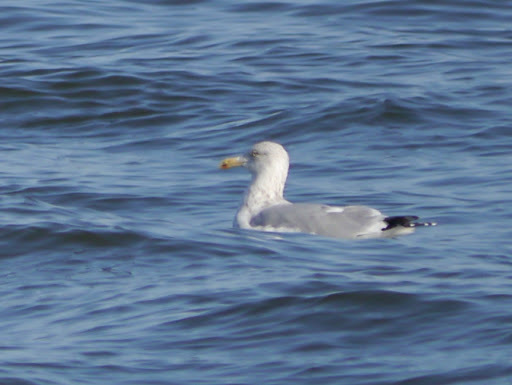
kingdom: Animalia
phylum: Chordata
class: Aves
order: Charadriiformes
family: Laridae
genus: Larus
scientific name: Larus argentatus
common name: Herring gull
